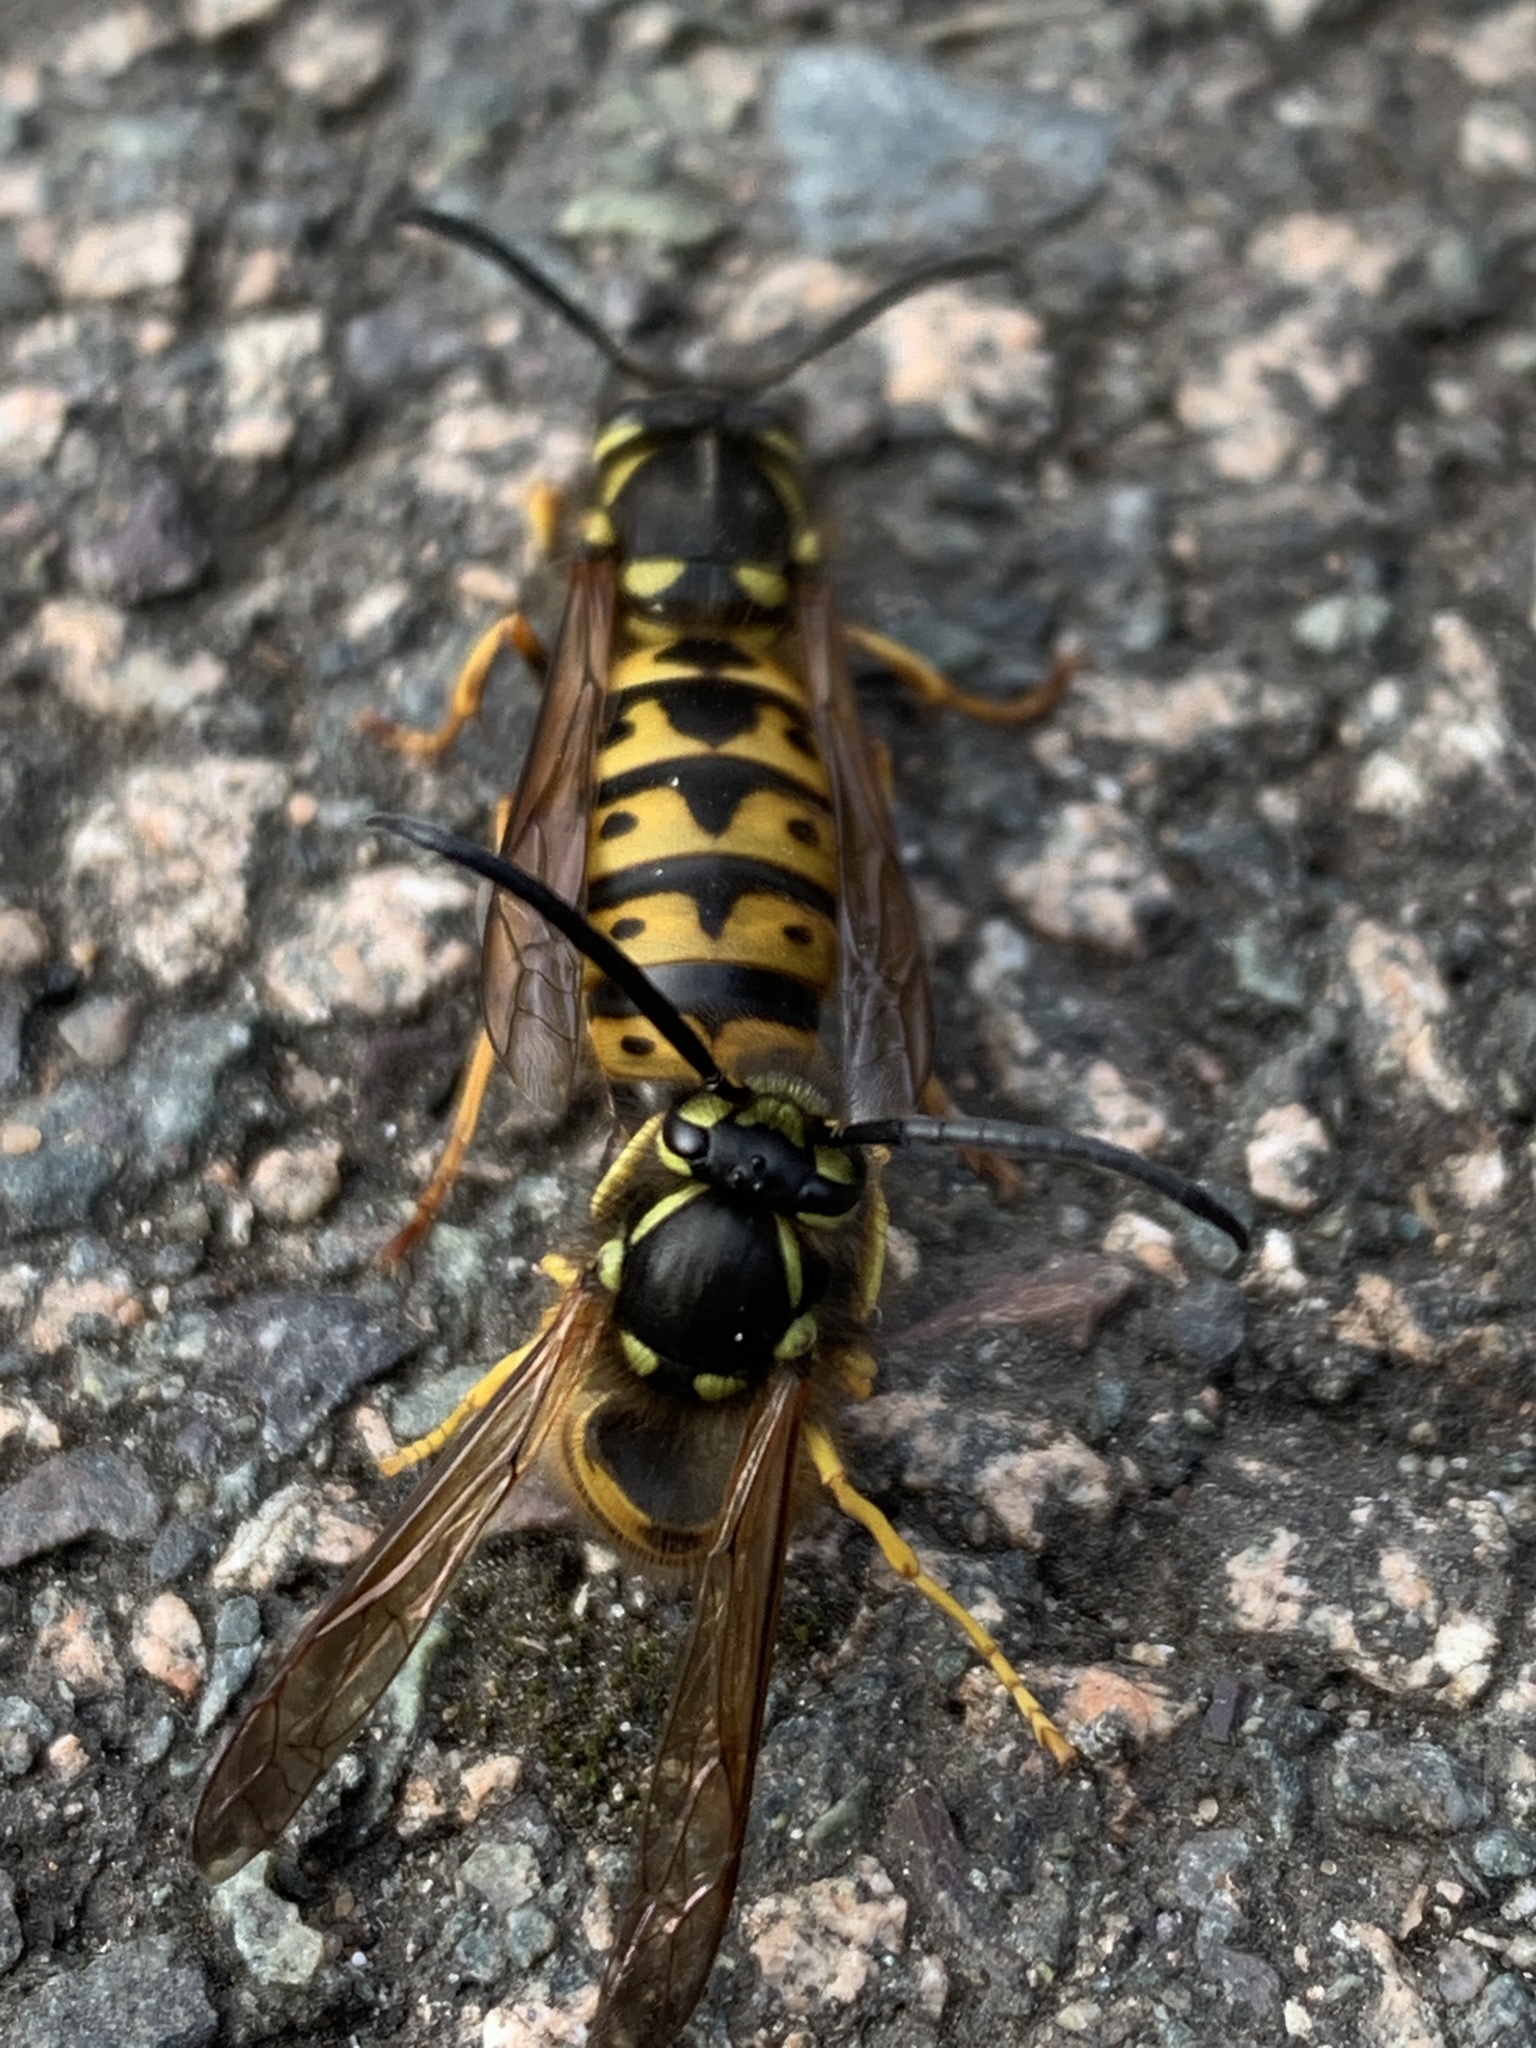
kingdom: Animalia
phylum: Arthropoda
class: Insecta
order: Hymenoptera
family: Vespidae
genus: Vespula
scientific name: Vespula germanica
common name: German wasp
